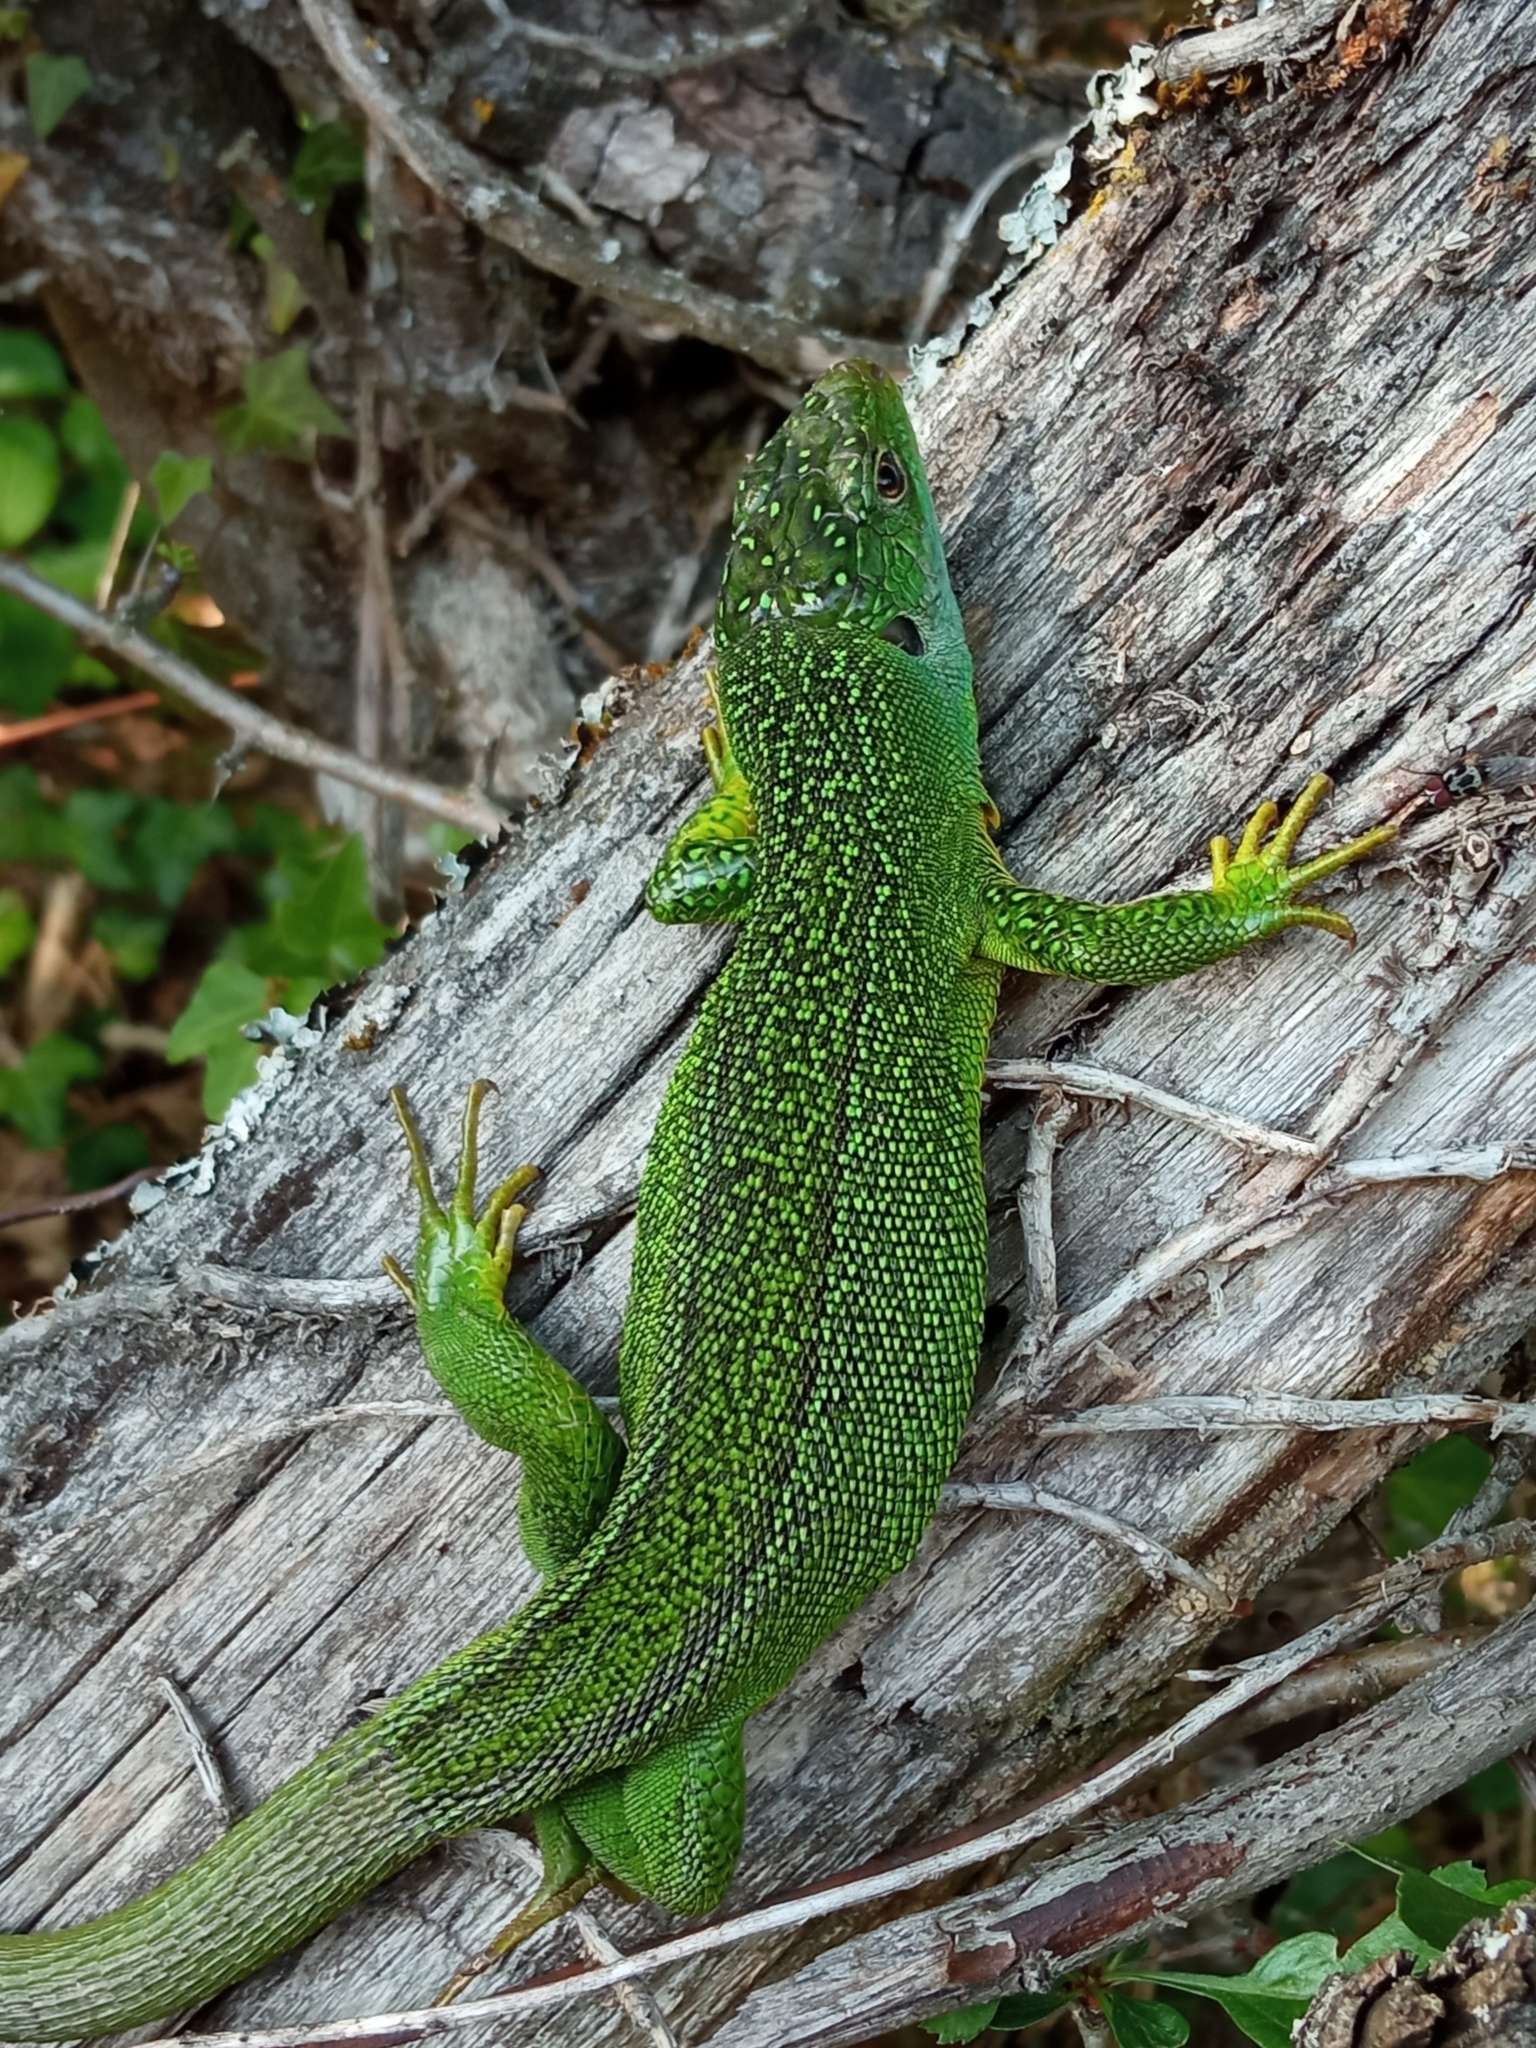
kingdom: Animalia
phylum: Chordata
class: Squamata
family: Lacertidae
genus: Lacerta
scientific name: Lacerta bilineata
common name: Western green lizard
